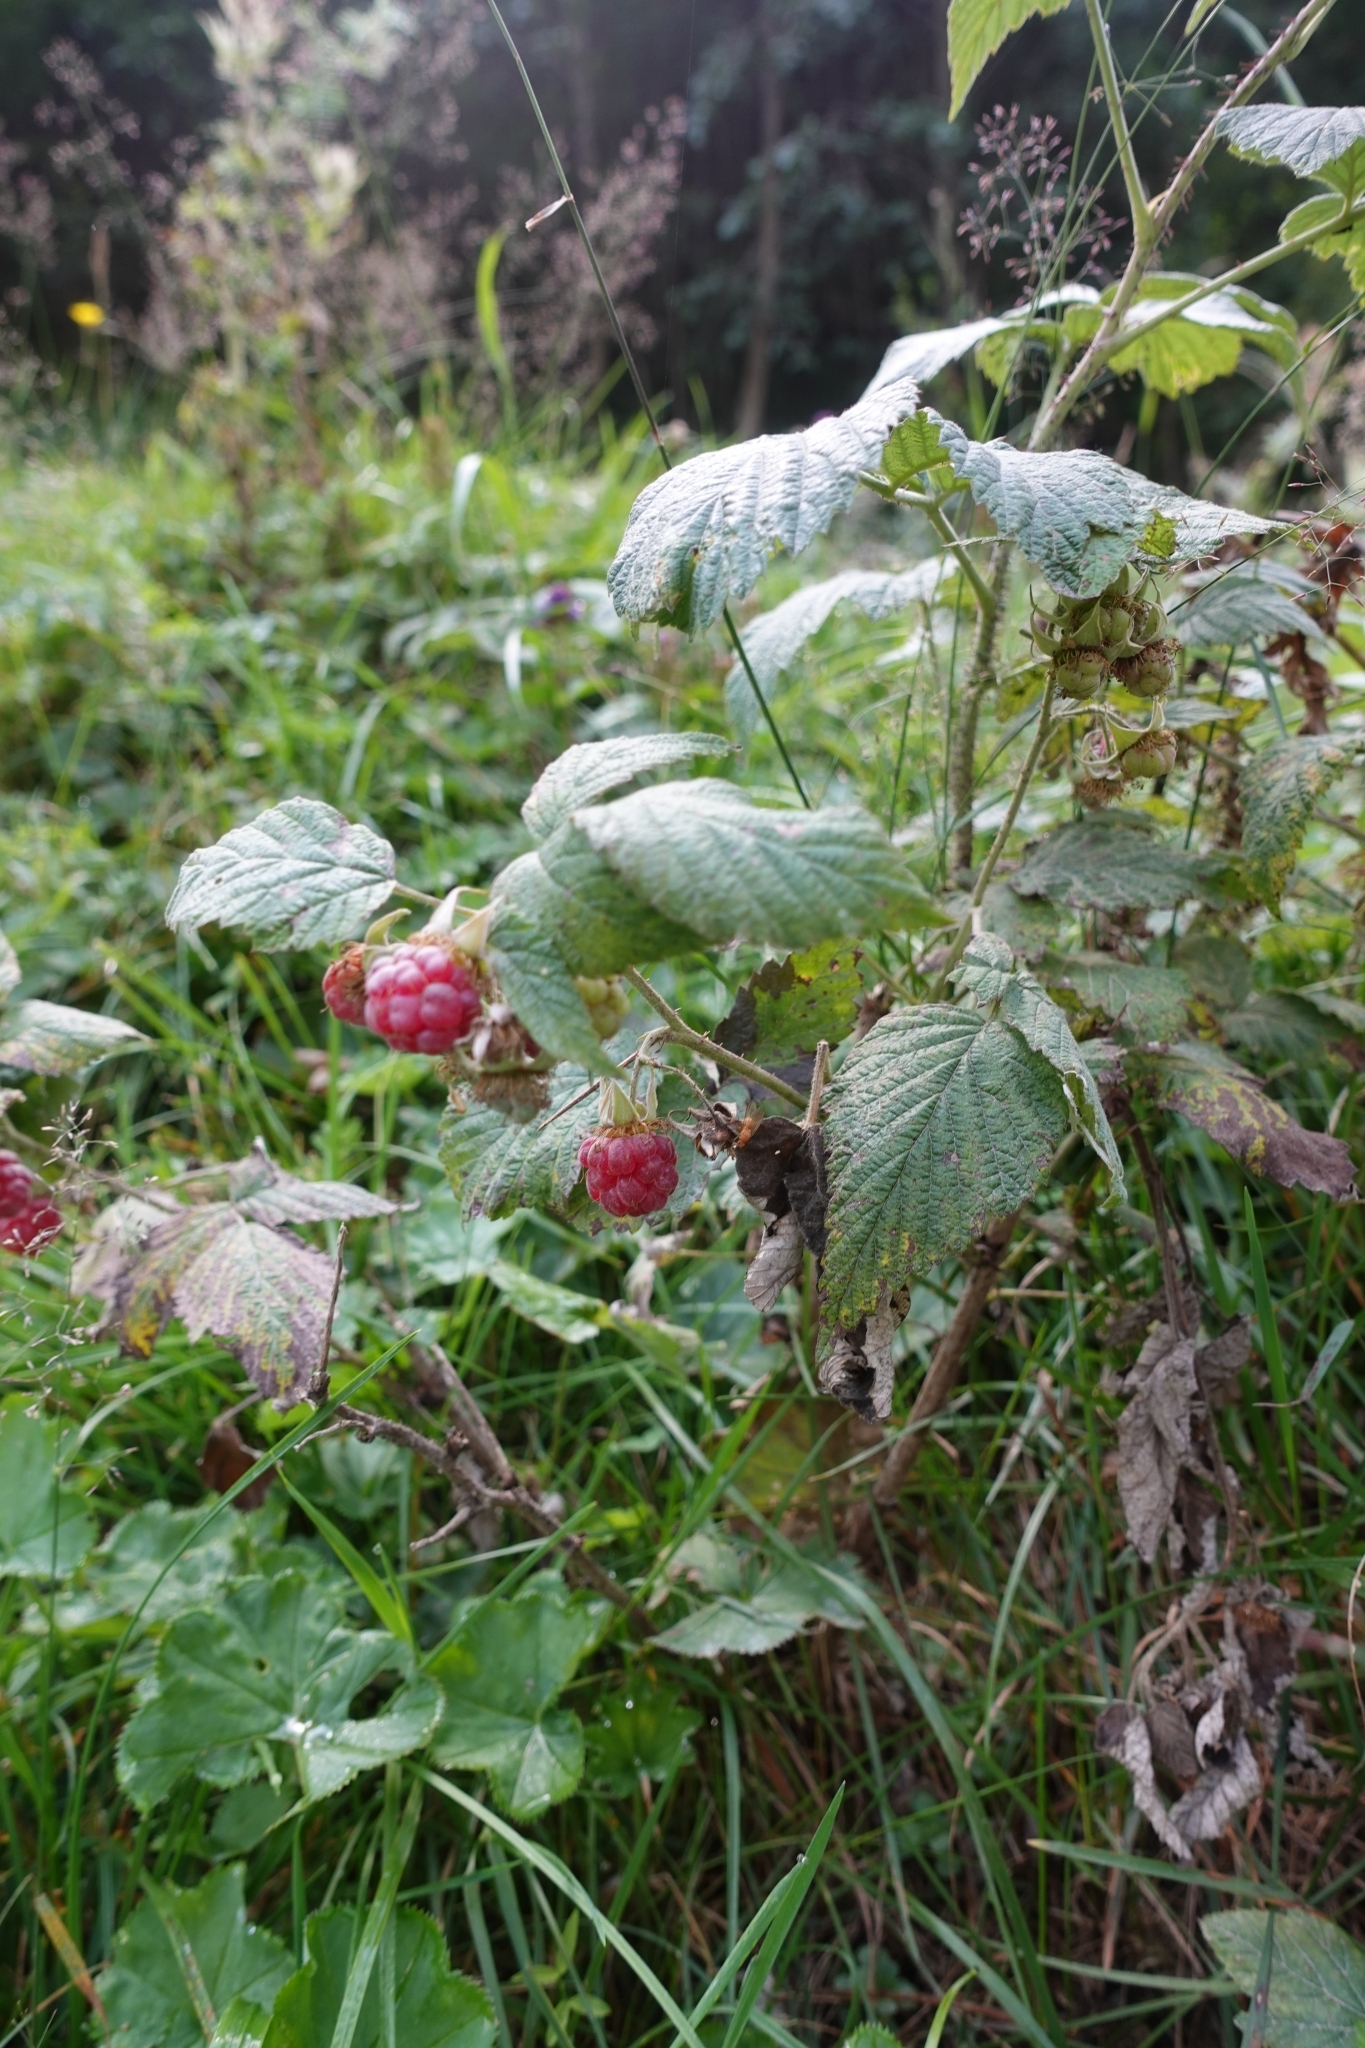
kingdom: Plantae
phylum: Tracheophyta
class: Magnoliopsida
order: Rosales
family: Rosaceae
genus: Rubus
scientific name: Rubus idaeus
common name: Raspberry
